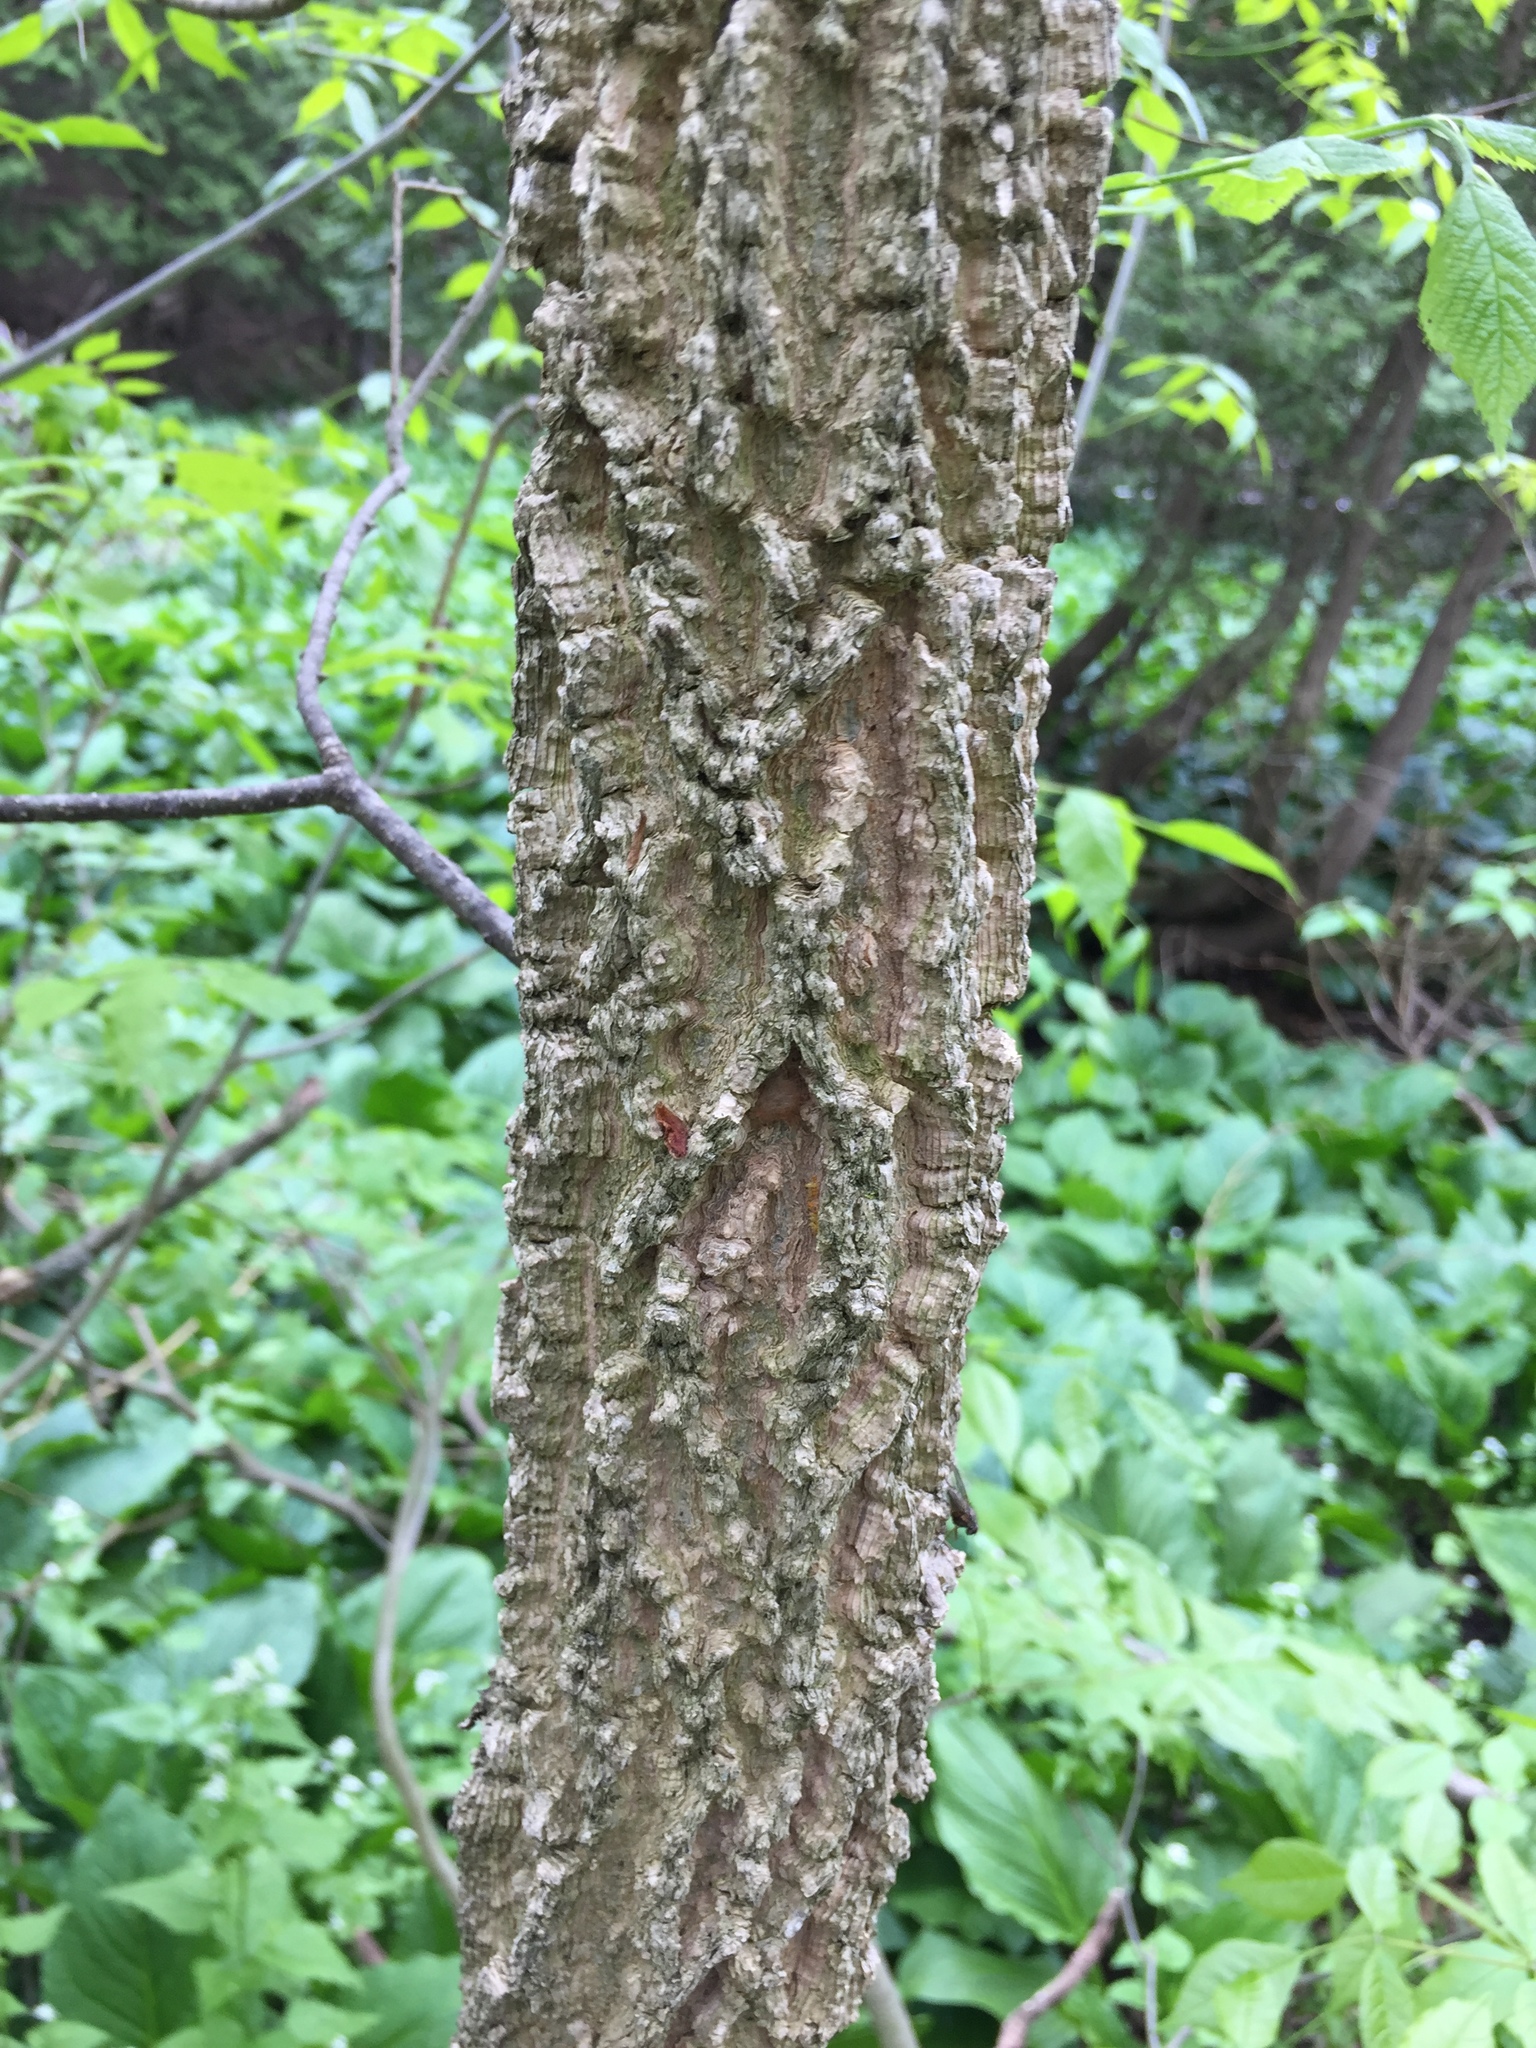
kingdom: Plantae
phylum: Tracheophyta
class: Magnoliopsida
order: Rosales
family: Cannabaceae
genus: Celtis
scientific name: Celtis occidentalis
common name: Common hackberry
